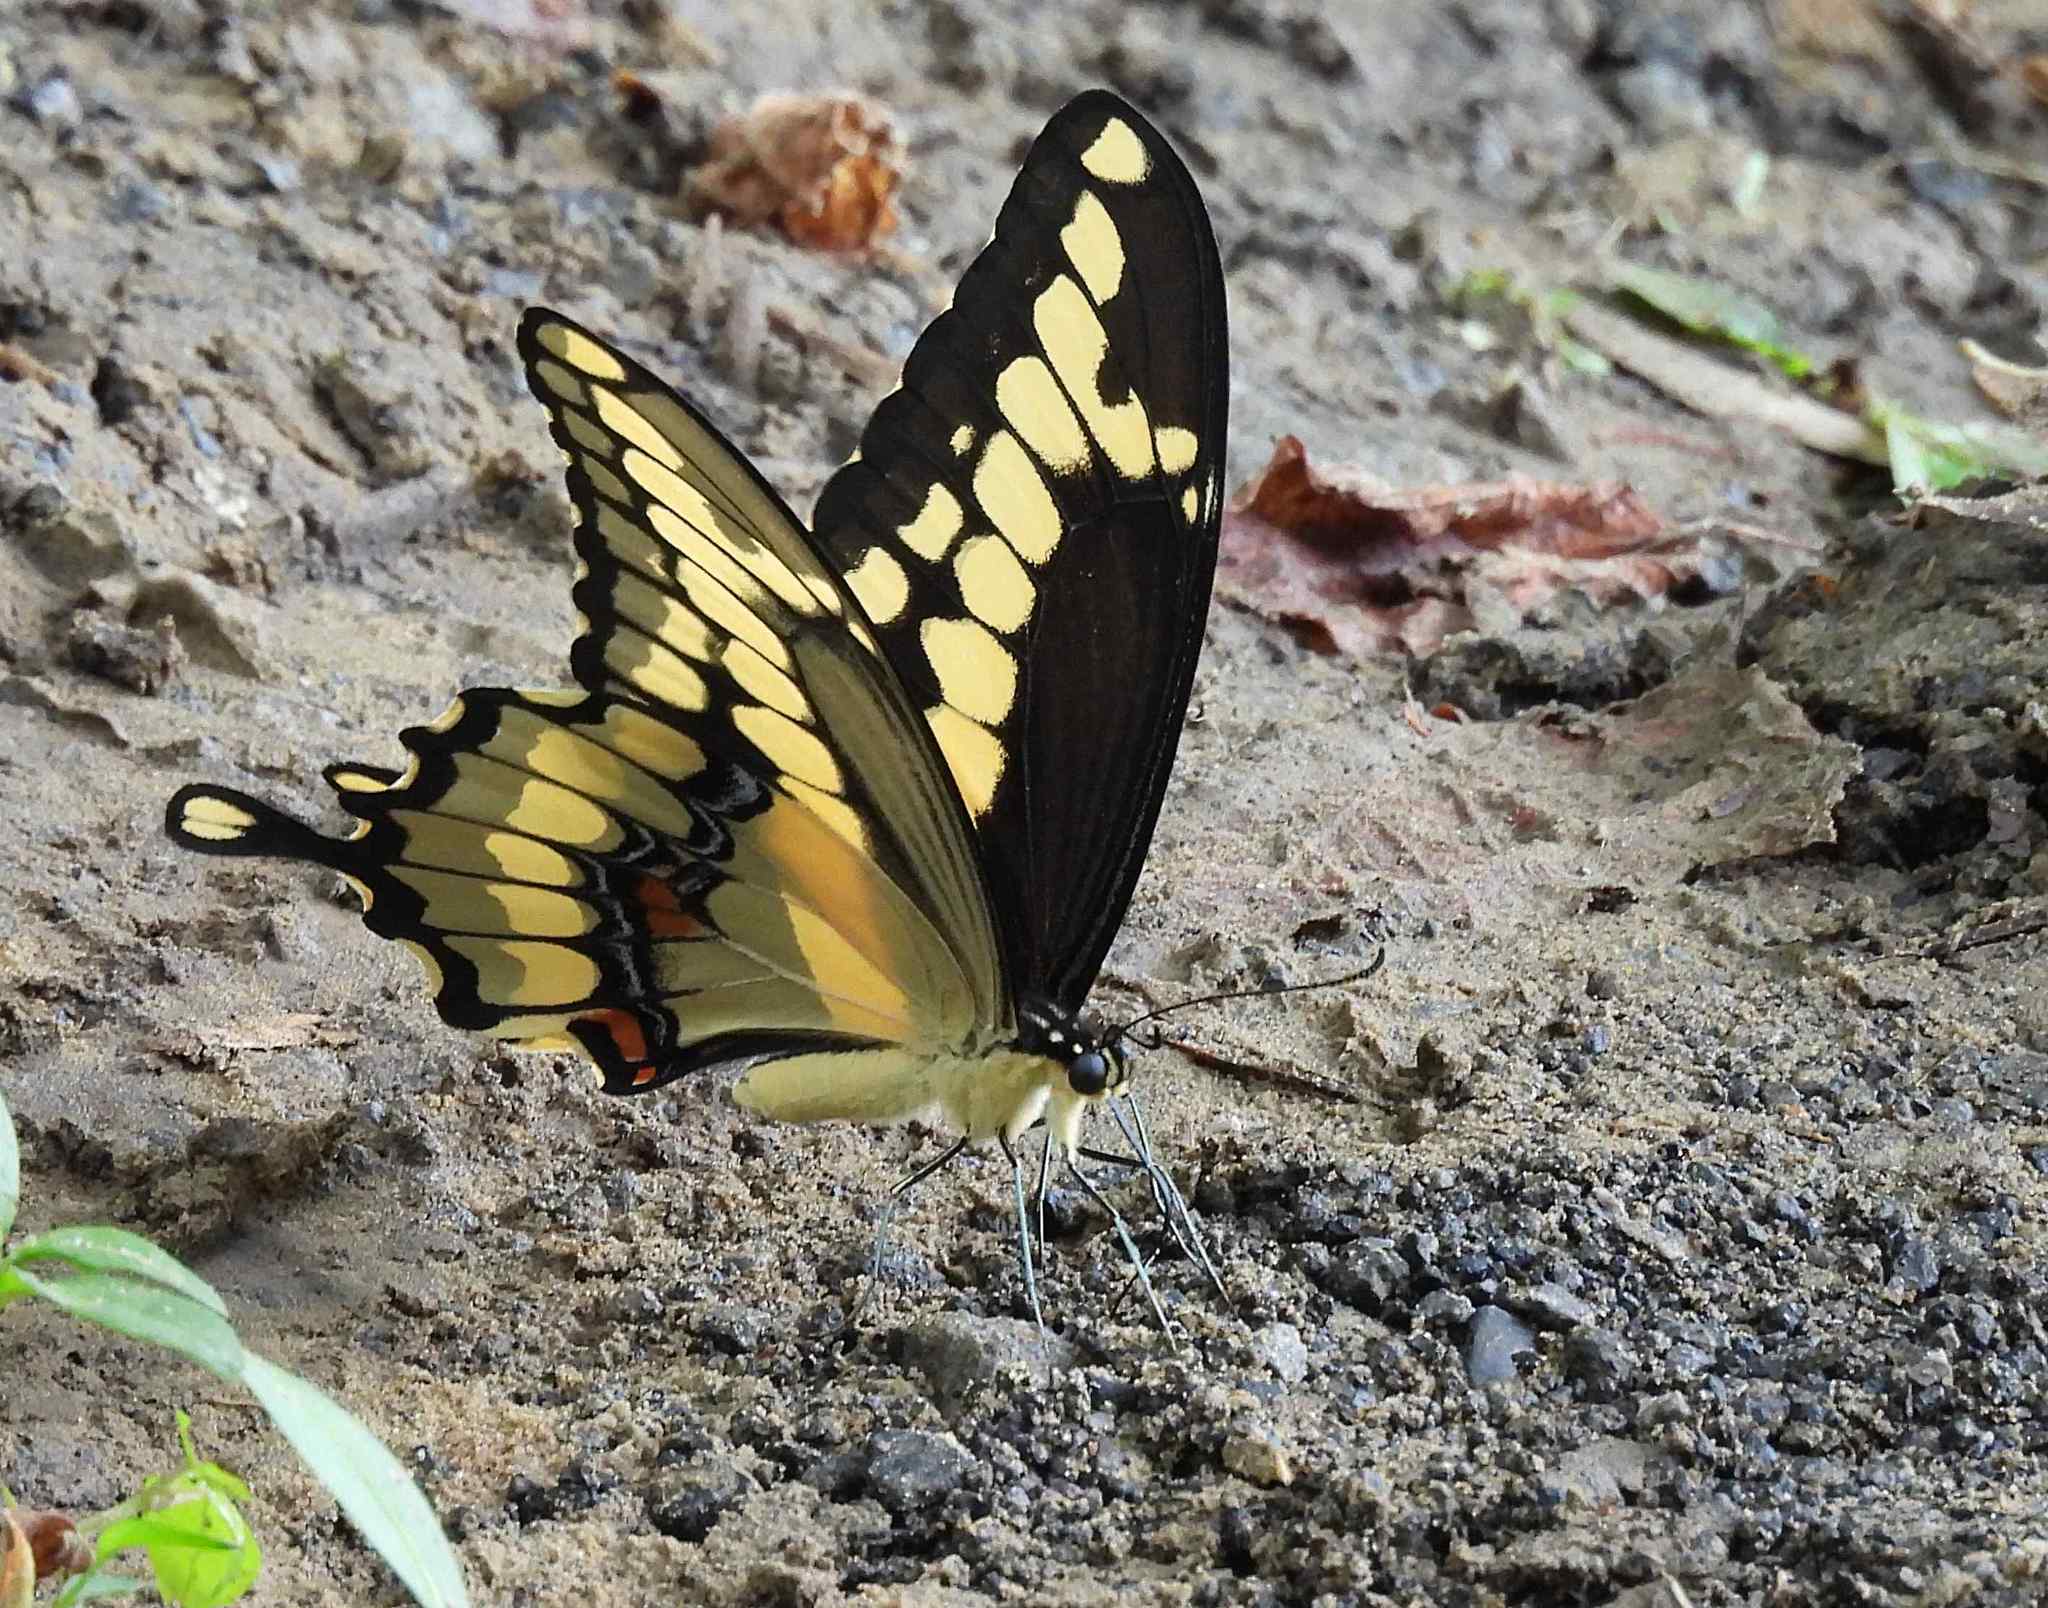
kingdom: Animalia
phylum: Arthropoda
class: Insecta
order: Lepidoptera
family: Papilionidae
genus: Papilio
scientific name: Papilio cresphontes
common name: Giant swallowtail
